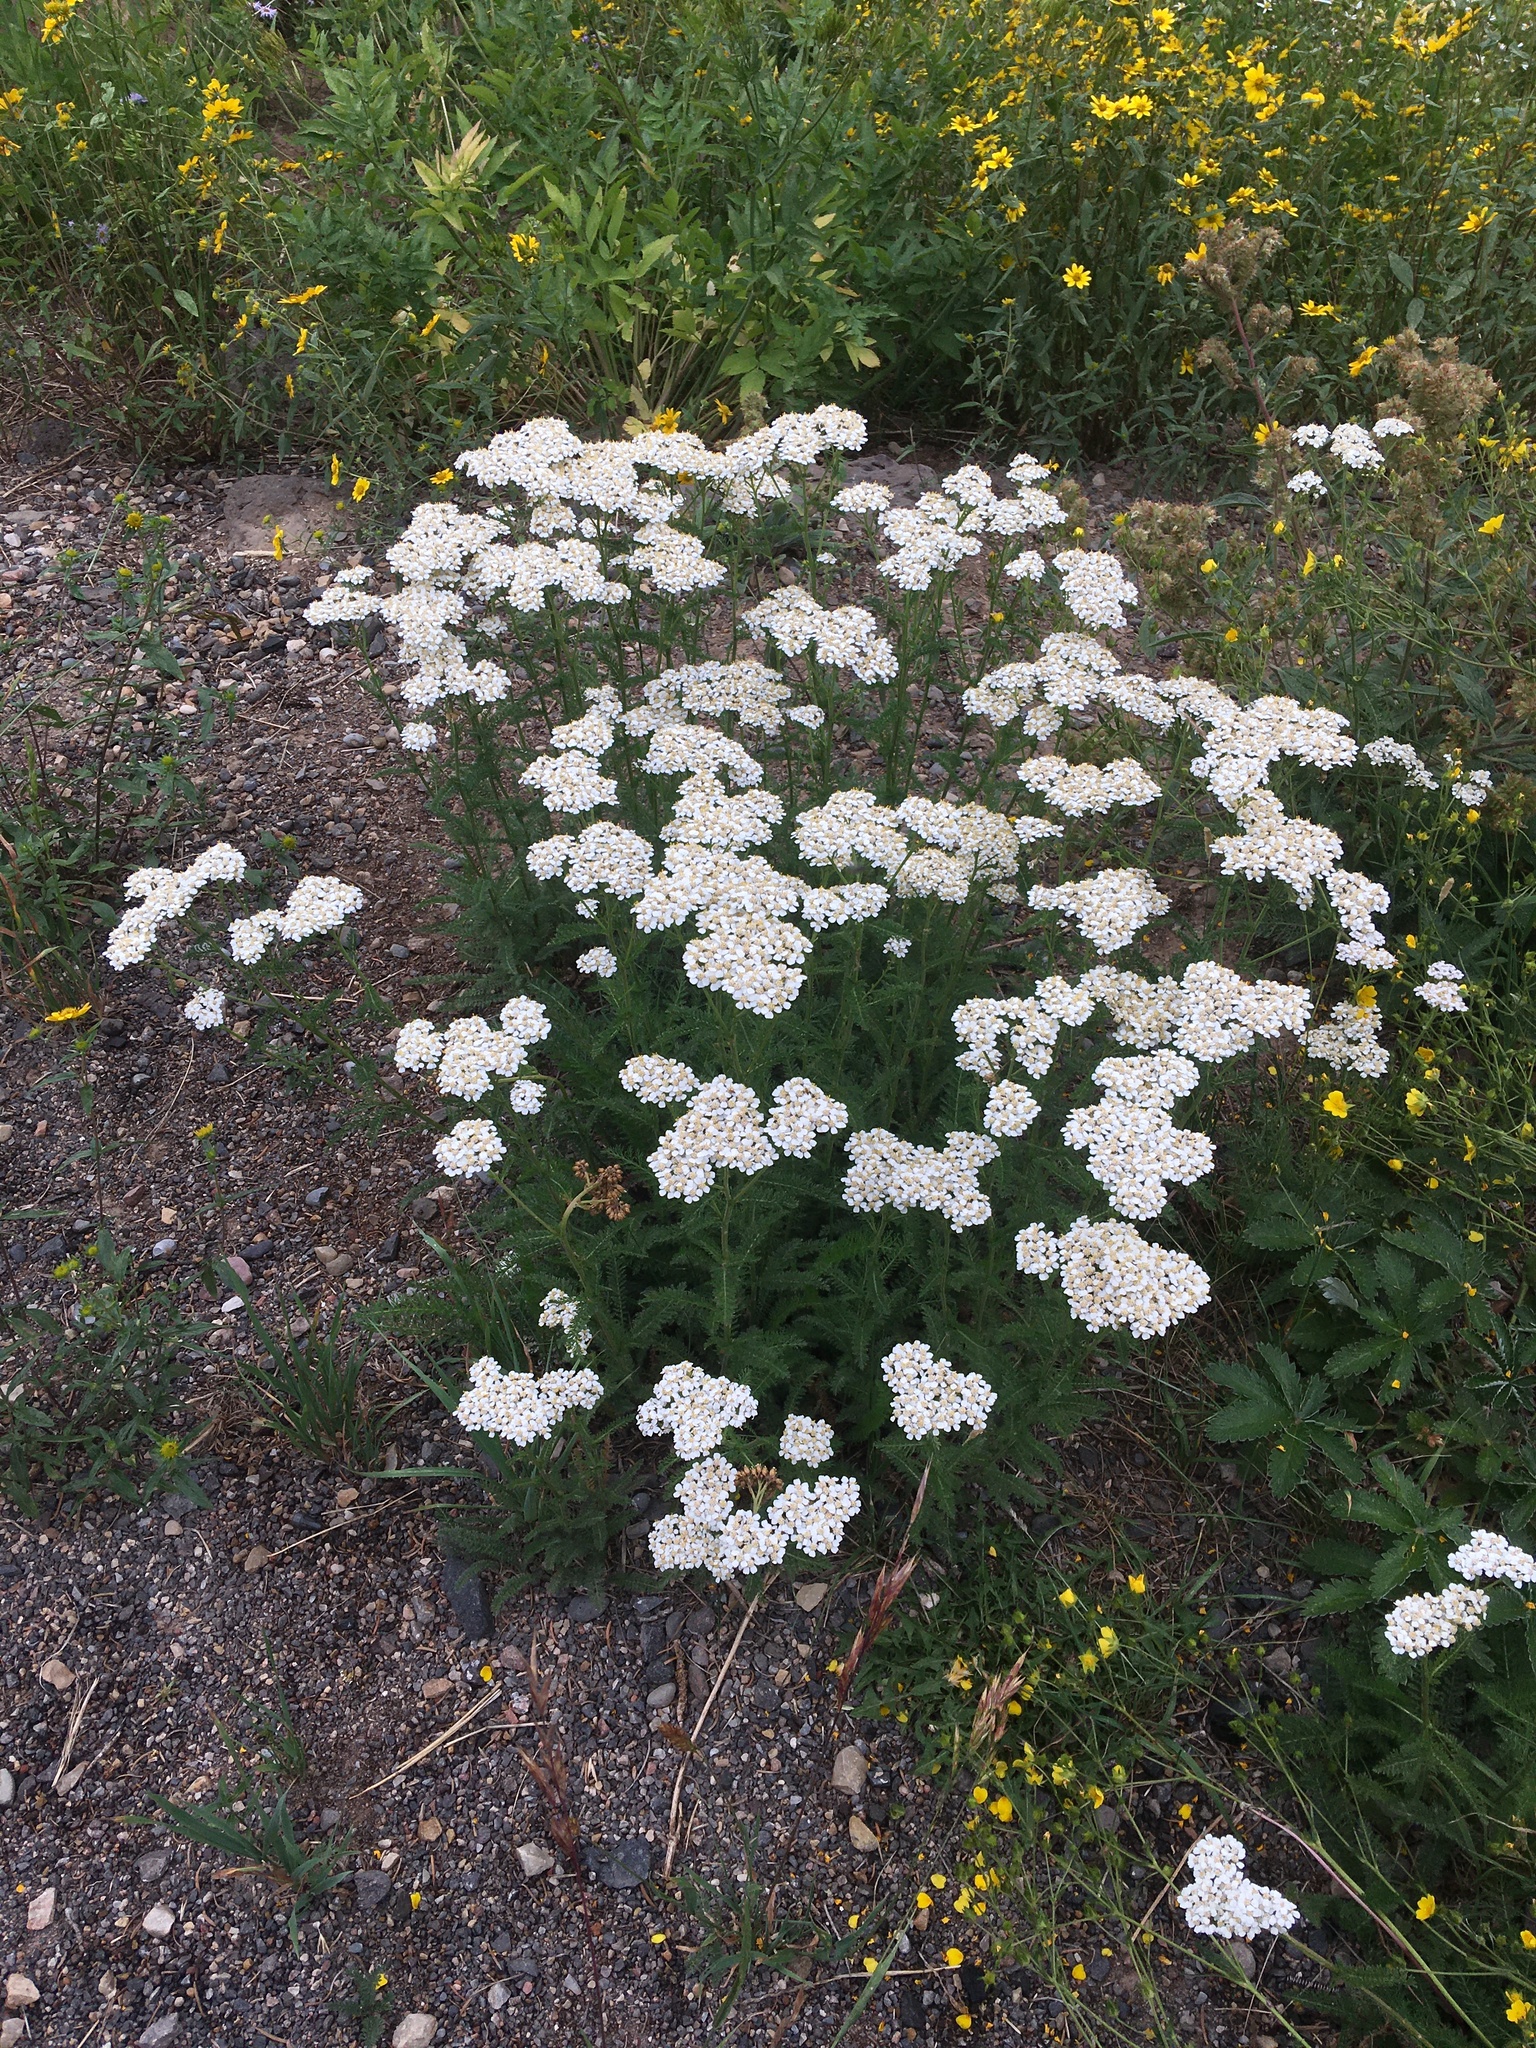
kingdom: Plantae
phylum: Tracheophyta
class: Magnoliopsida
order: Asterales
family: Asteraceae
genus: Achillea
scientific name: Achillea millefolium
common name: Yarrow
